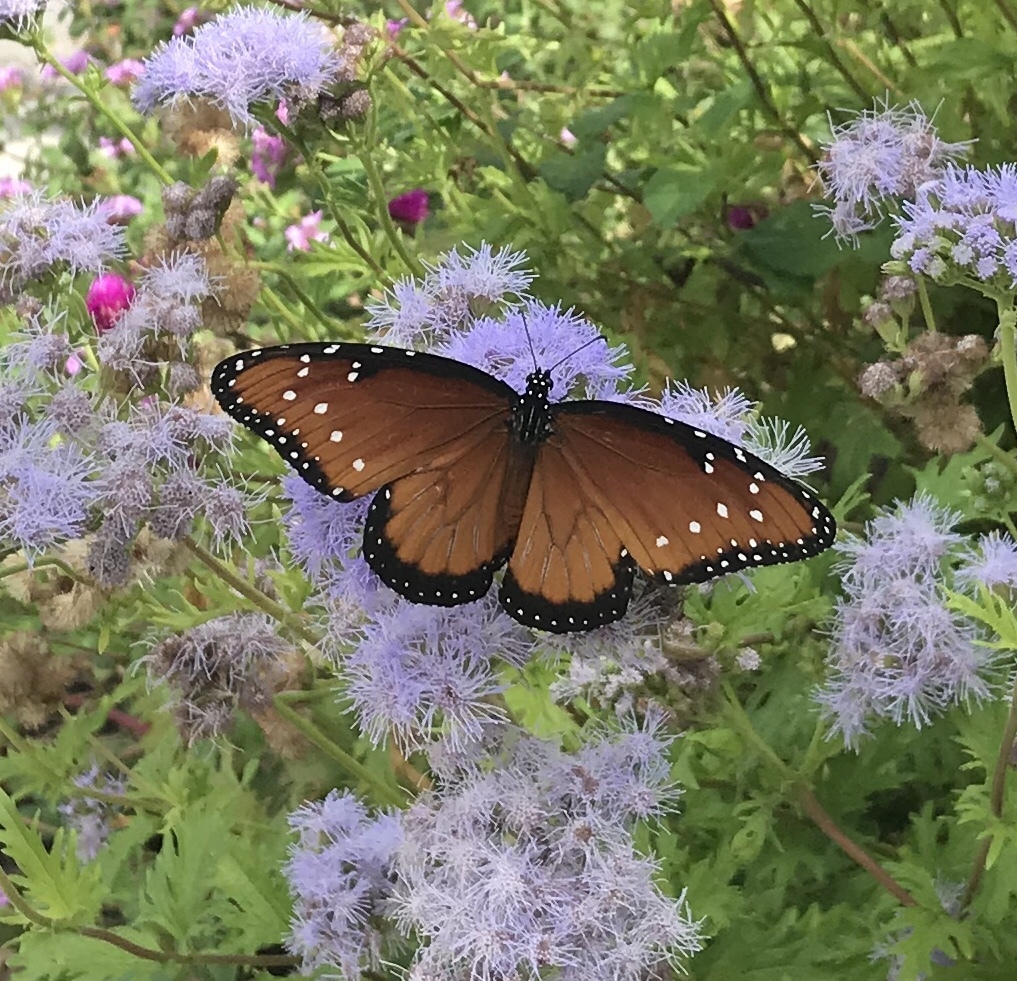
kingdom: Animalia
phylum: Arthropoda
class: Insecta
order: Lepidoptera
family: Nymphalidae
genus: Danaus
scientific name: Danaus gilippus
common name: Queen
